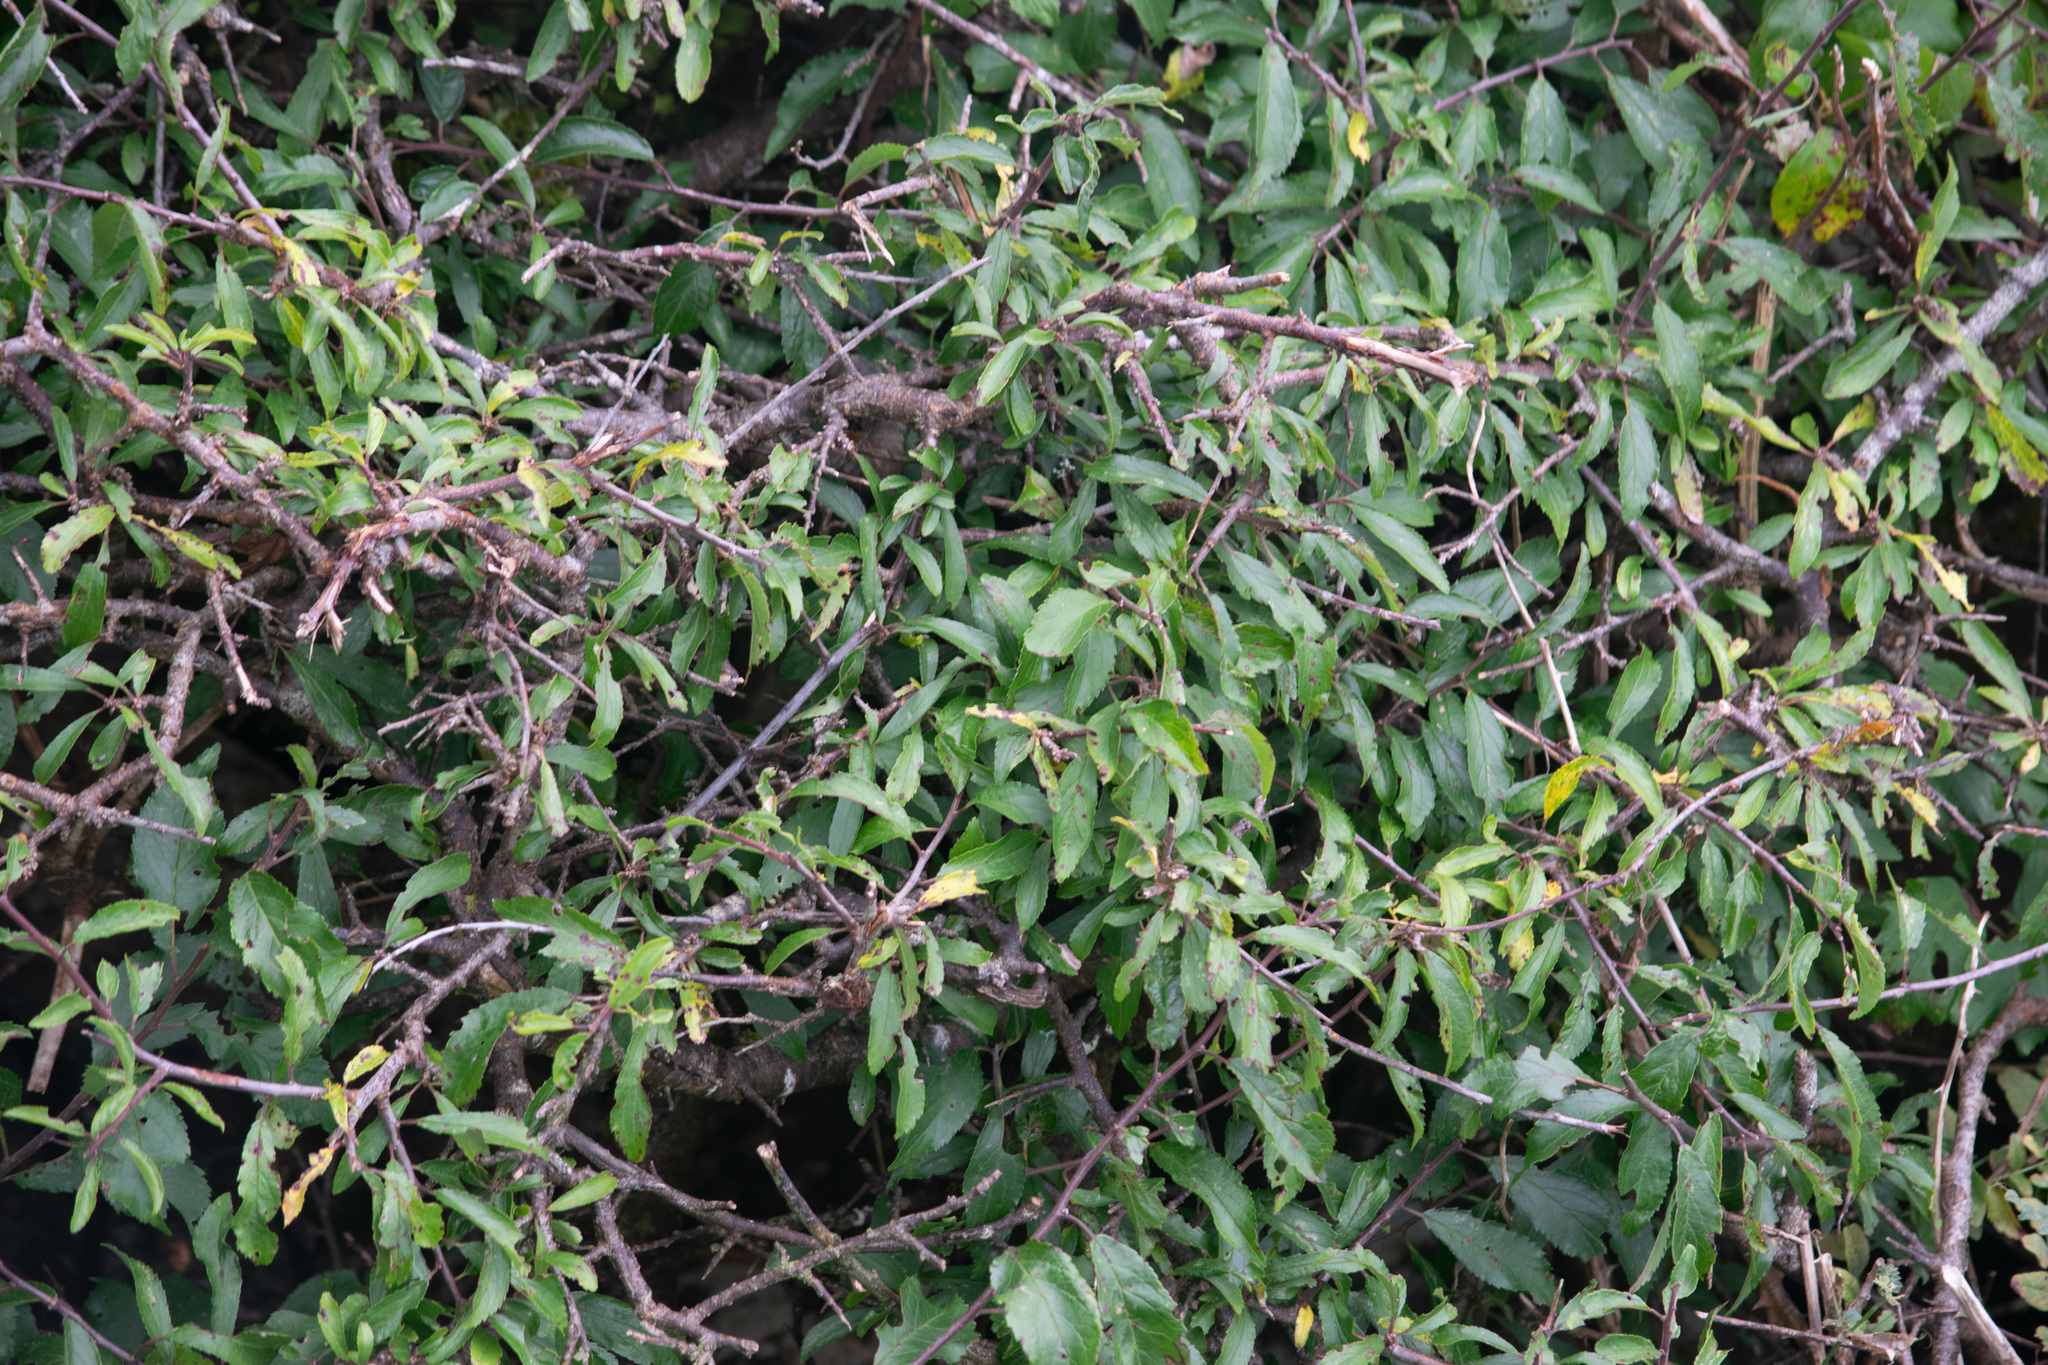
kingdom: Plantae
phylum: Tracheophyta
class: Magnoliopsida
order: Rosales
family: Rosaceae
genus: Prunus
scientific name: Prunus spinosa
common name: Blackthorn
